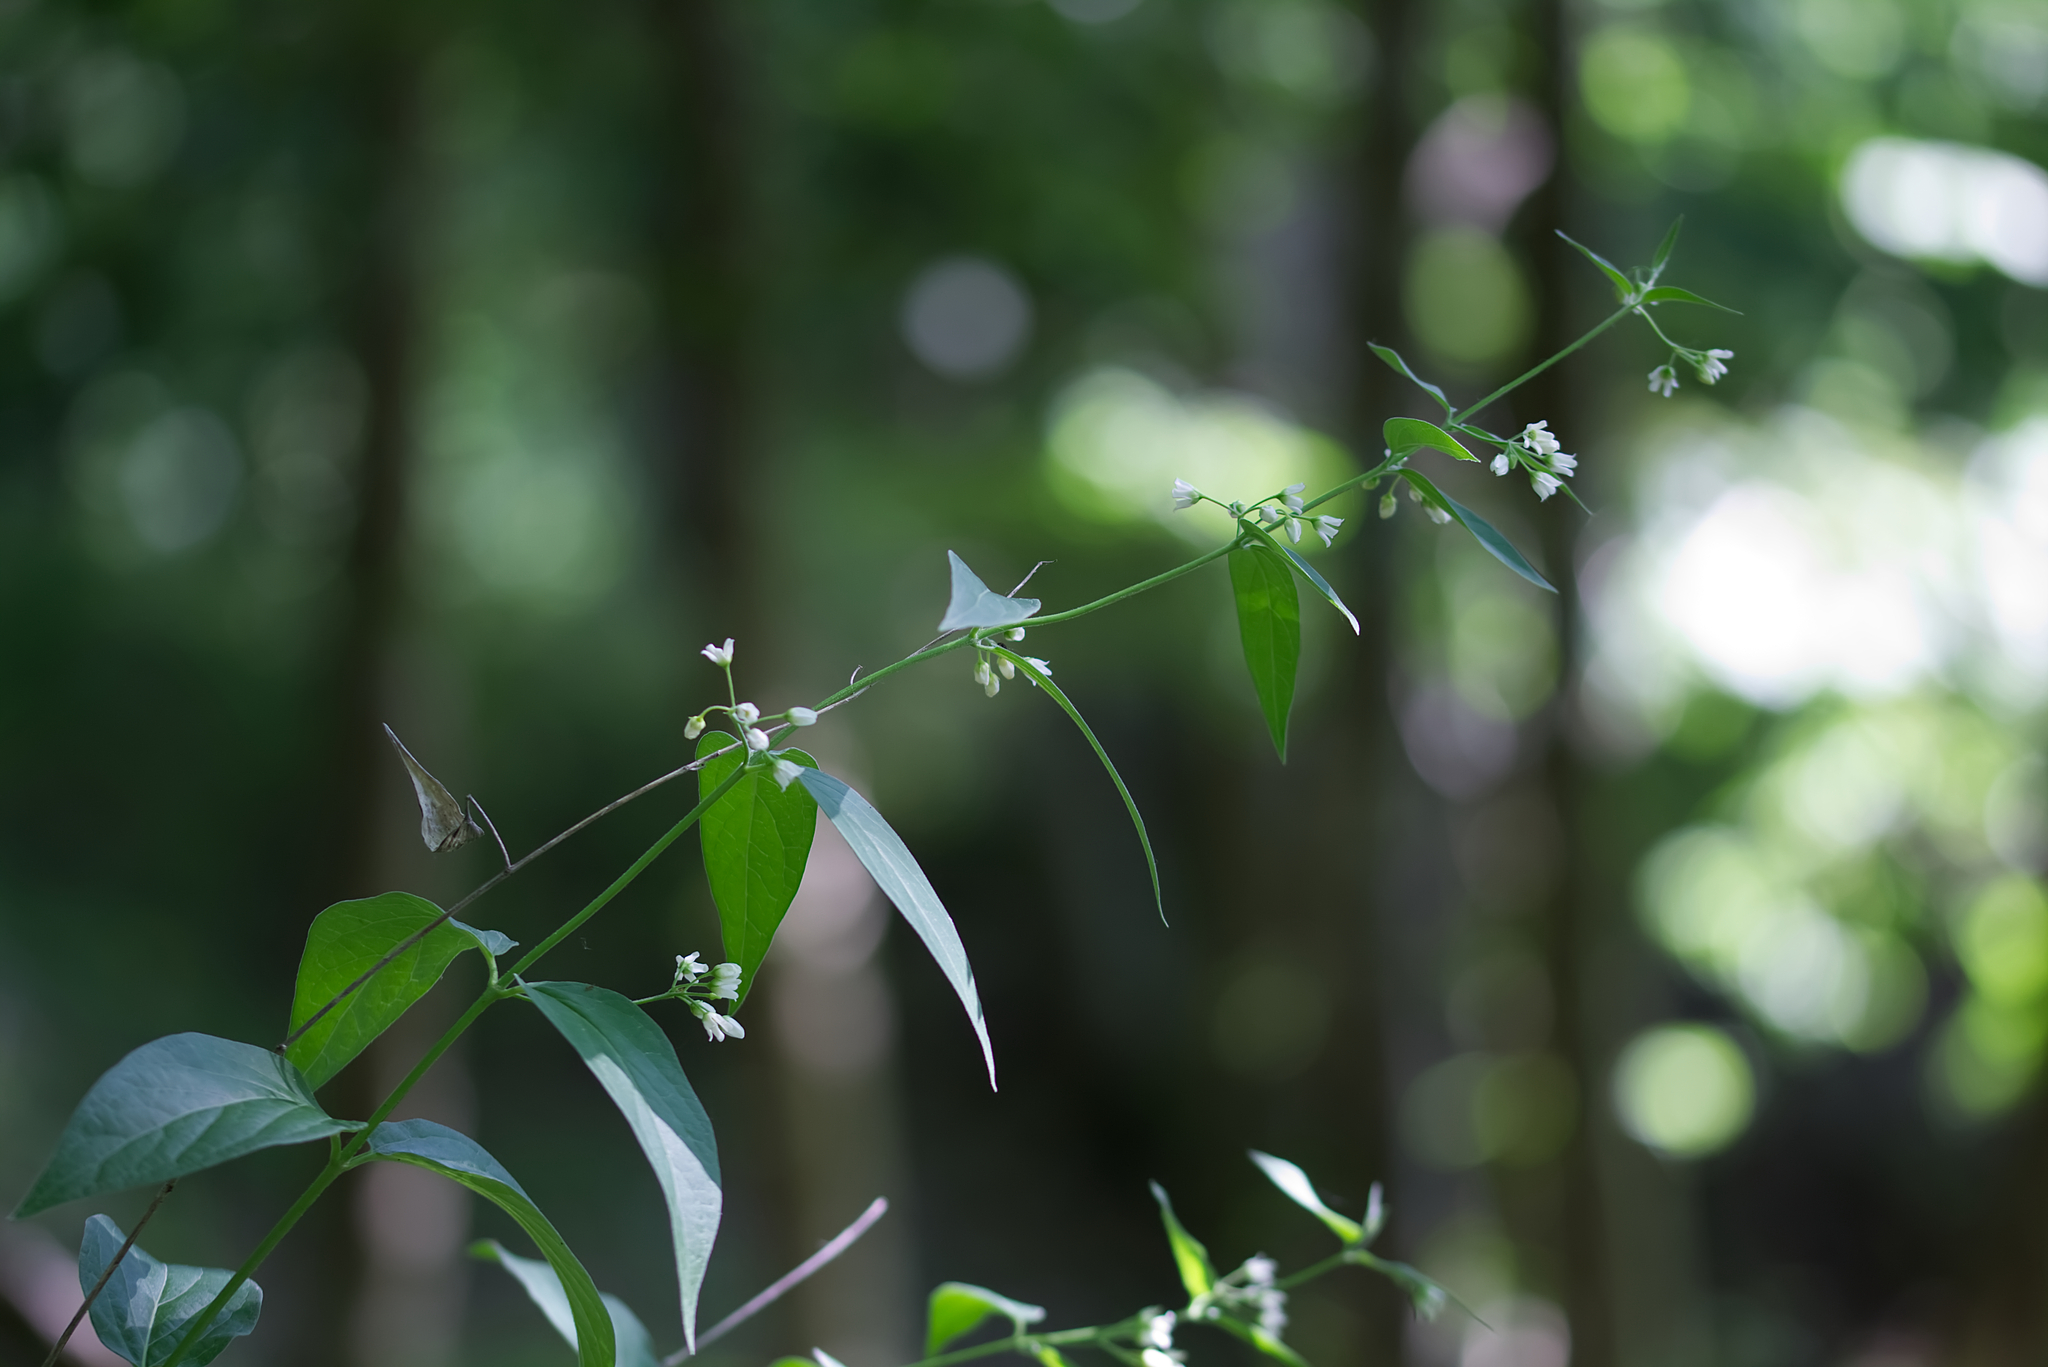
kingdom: Plantae
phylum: Tracheophyta
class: Magnoliopsida
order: Gentianales
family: Apocynaceae
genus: Vincetoxicum
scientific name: Vincetoxicum hirundinaria
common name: White swallowwort
